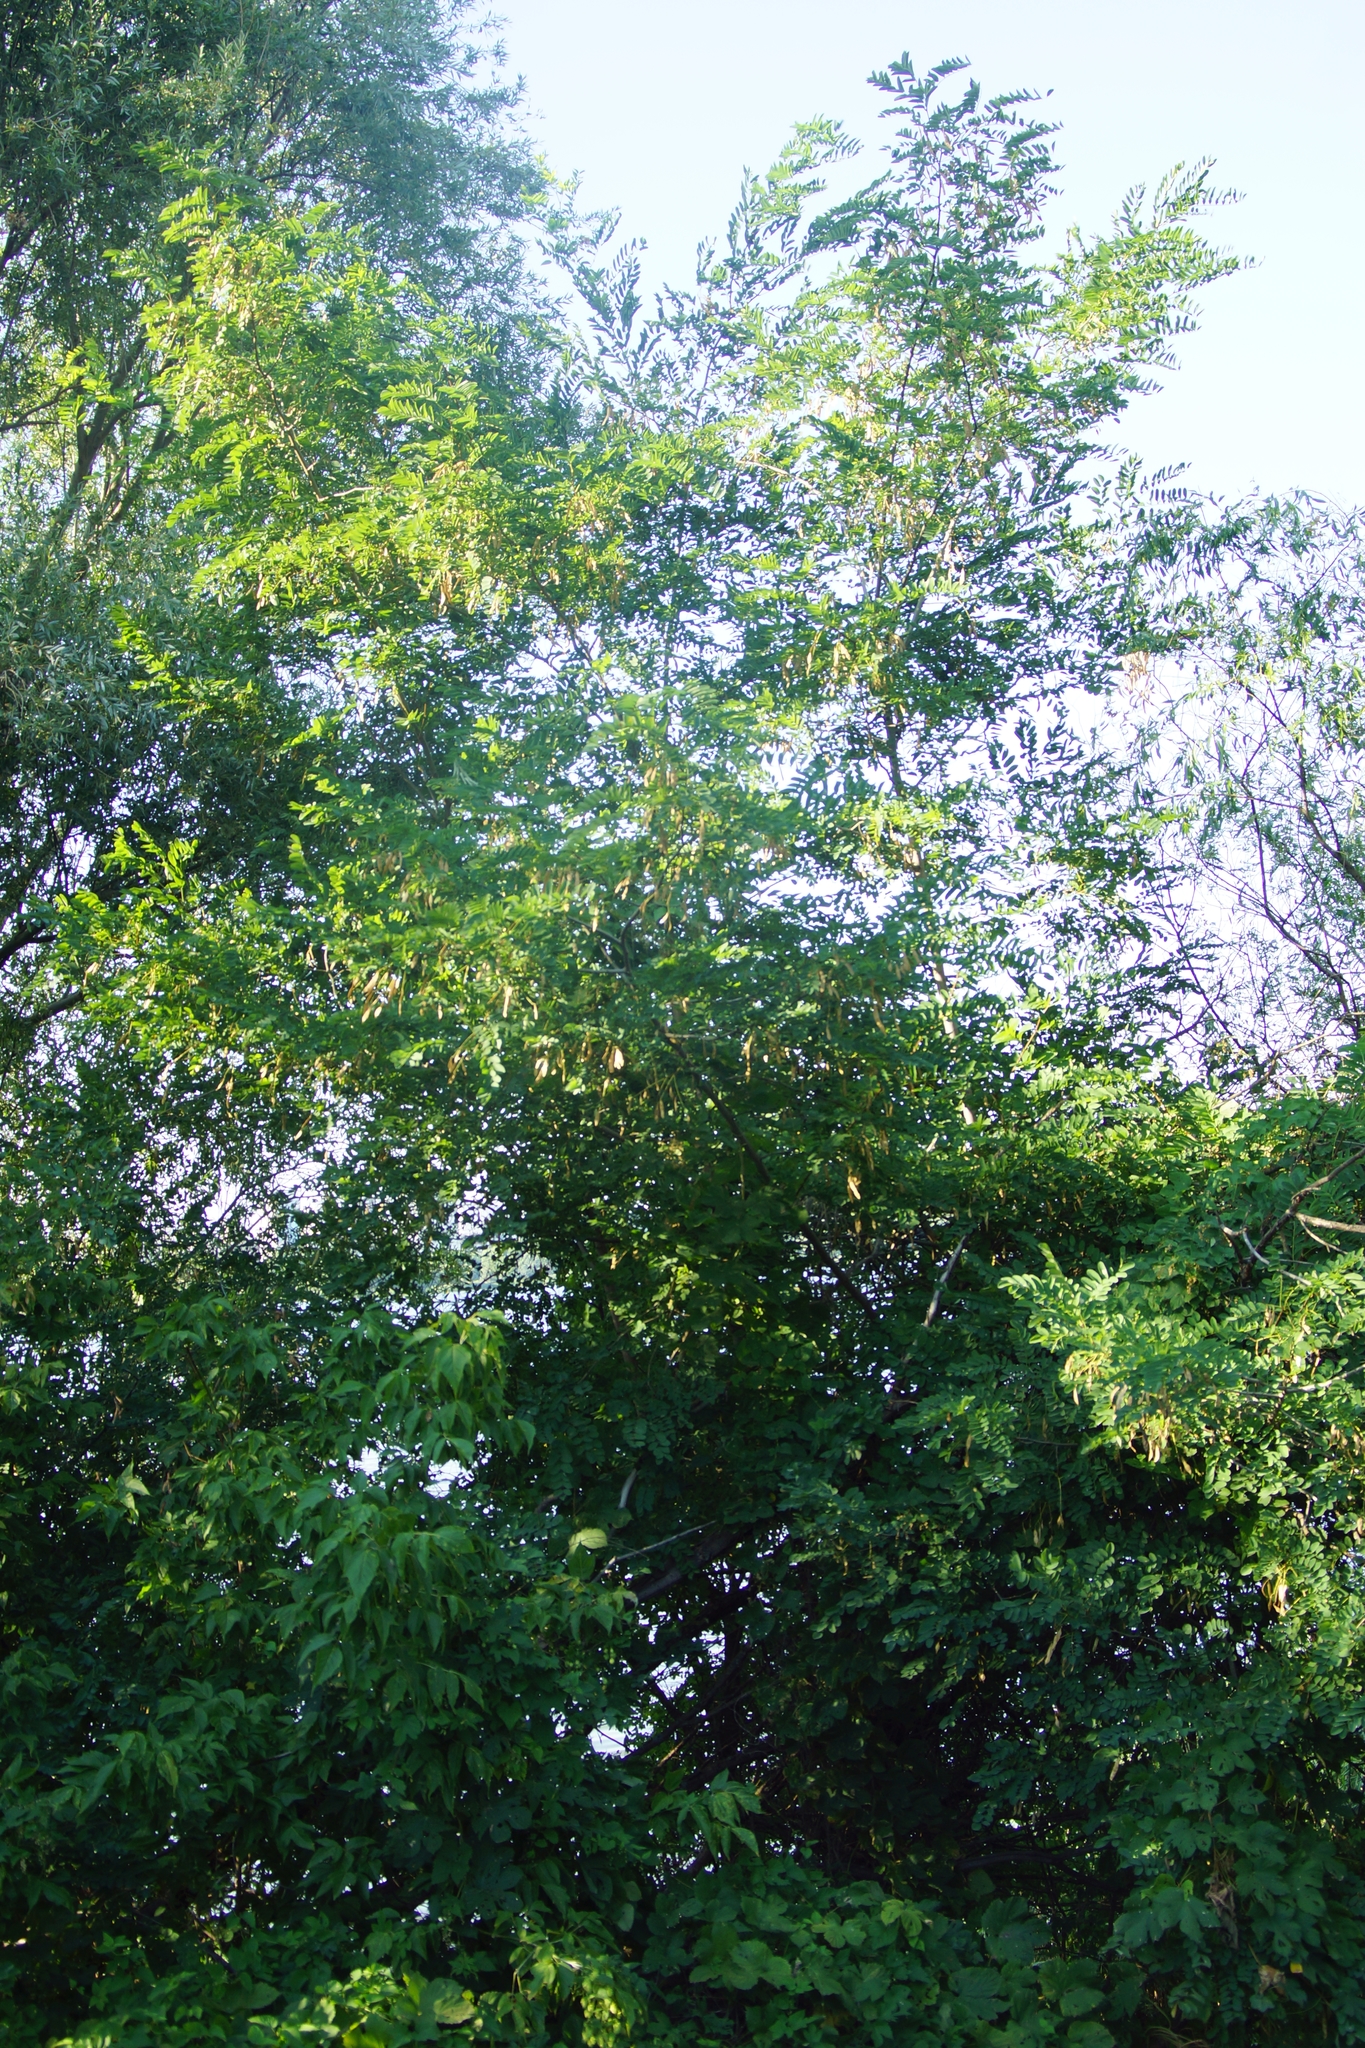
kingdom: Plantae
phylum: Tracheophyta
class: Magnoliopsida
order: Fabales
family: Fabaceae
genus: Robinia
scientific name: Robinia pseudoacacia
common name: Black locust
